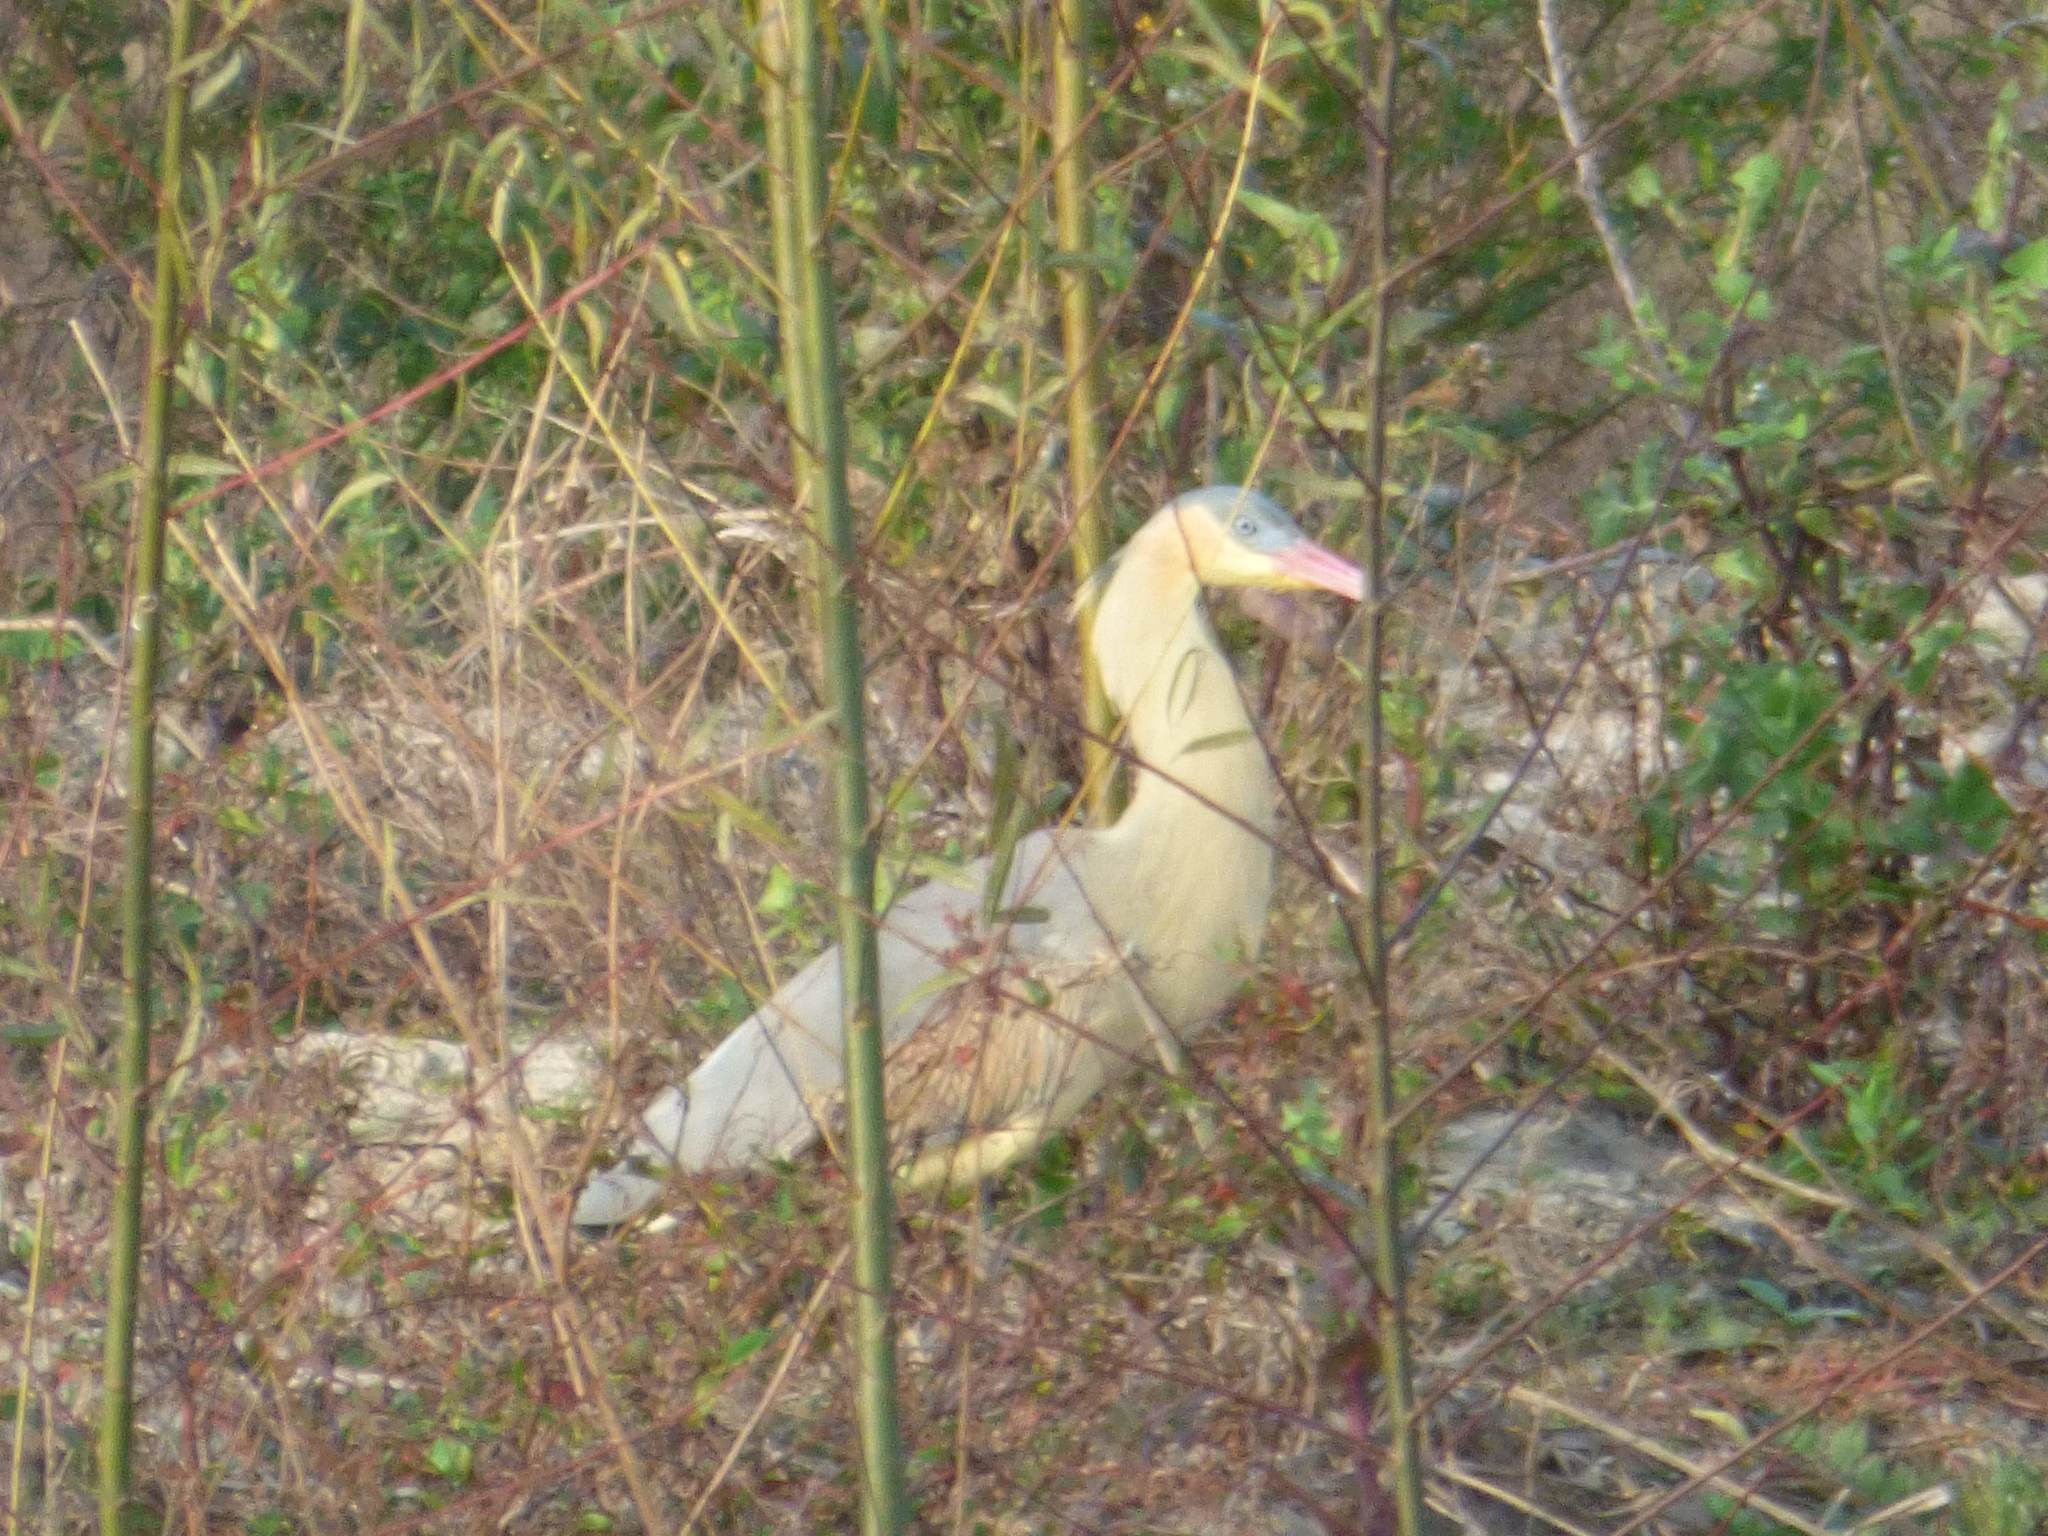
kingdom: Animalia
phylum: Chordata
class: Aves
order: Pelecaniformes
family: Ardeidae
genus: Syrigma
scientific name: Syrigma sibilatrix
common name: Whistling heron
